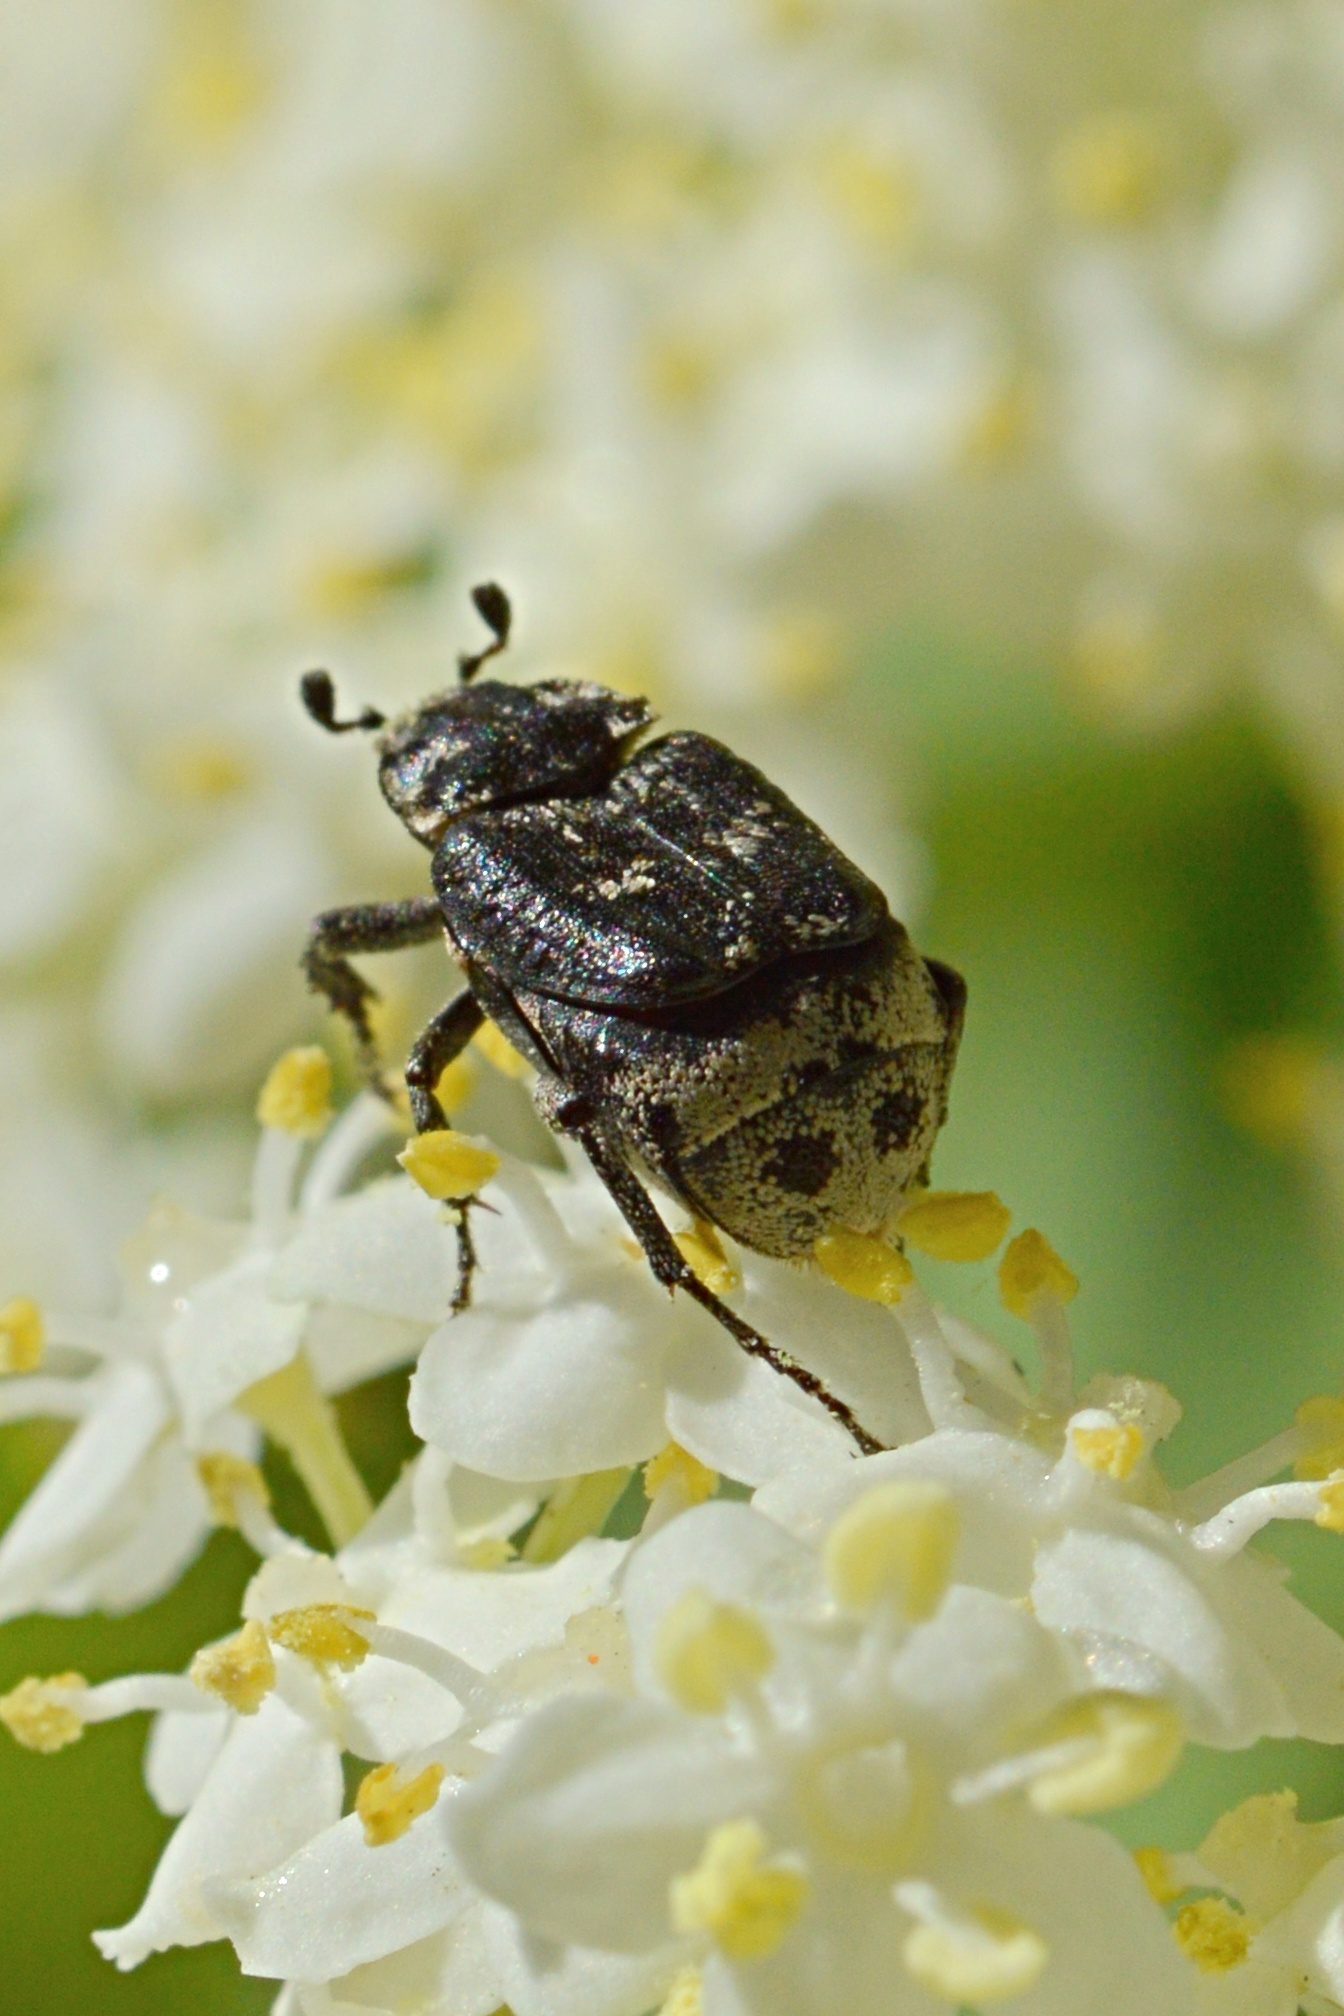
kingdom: Animalia
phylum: Arthropoda
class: Insecta
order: Coleoptera
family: Scarabaeidae
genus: Valgus
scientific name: Valgus hemipterus
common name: Bug flower chafer
